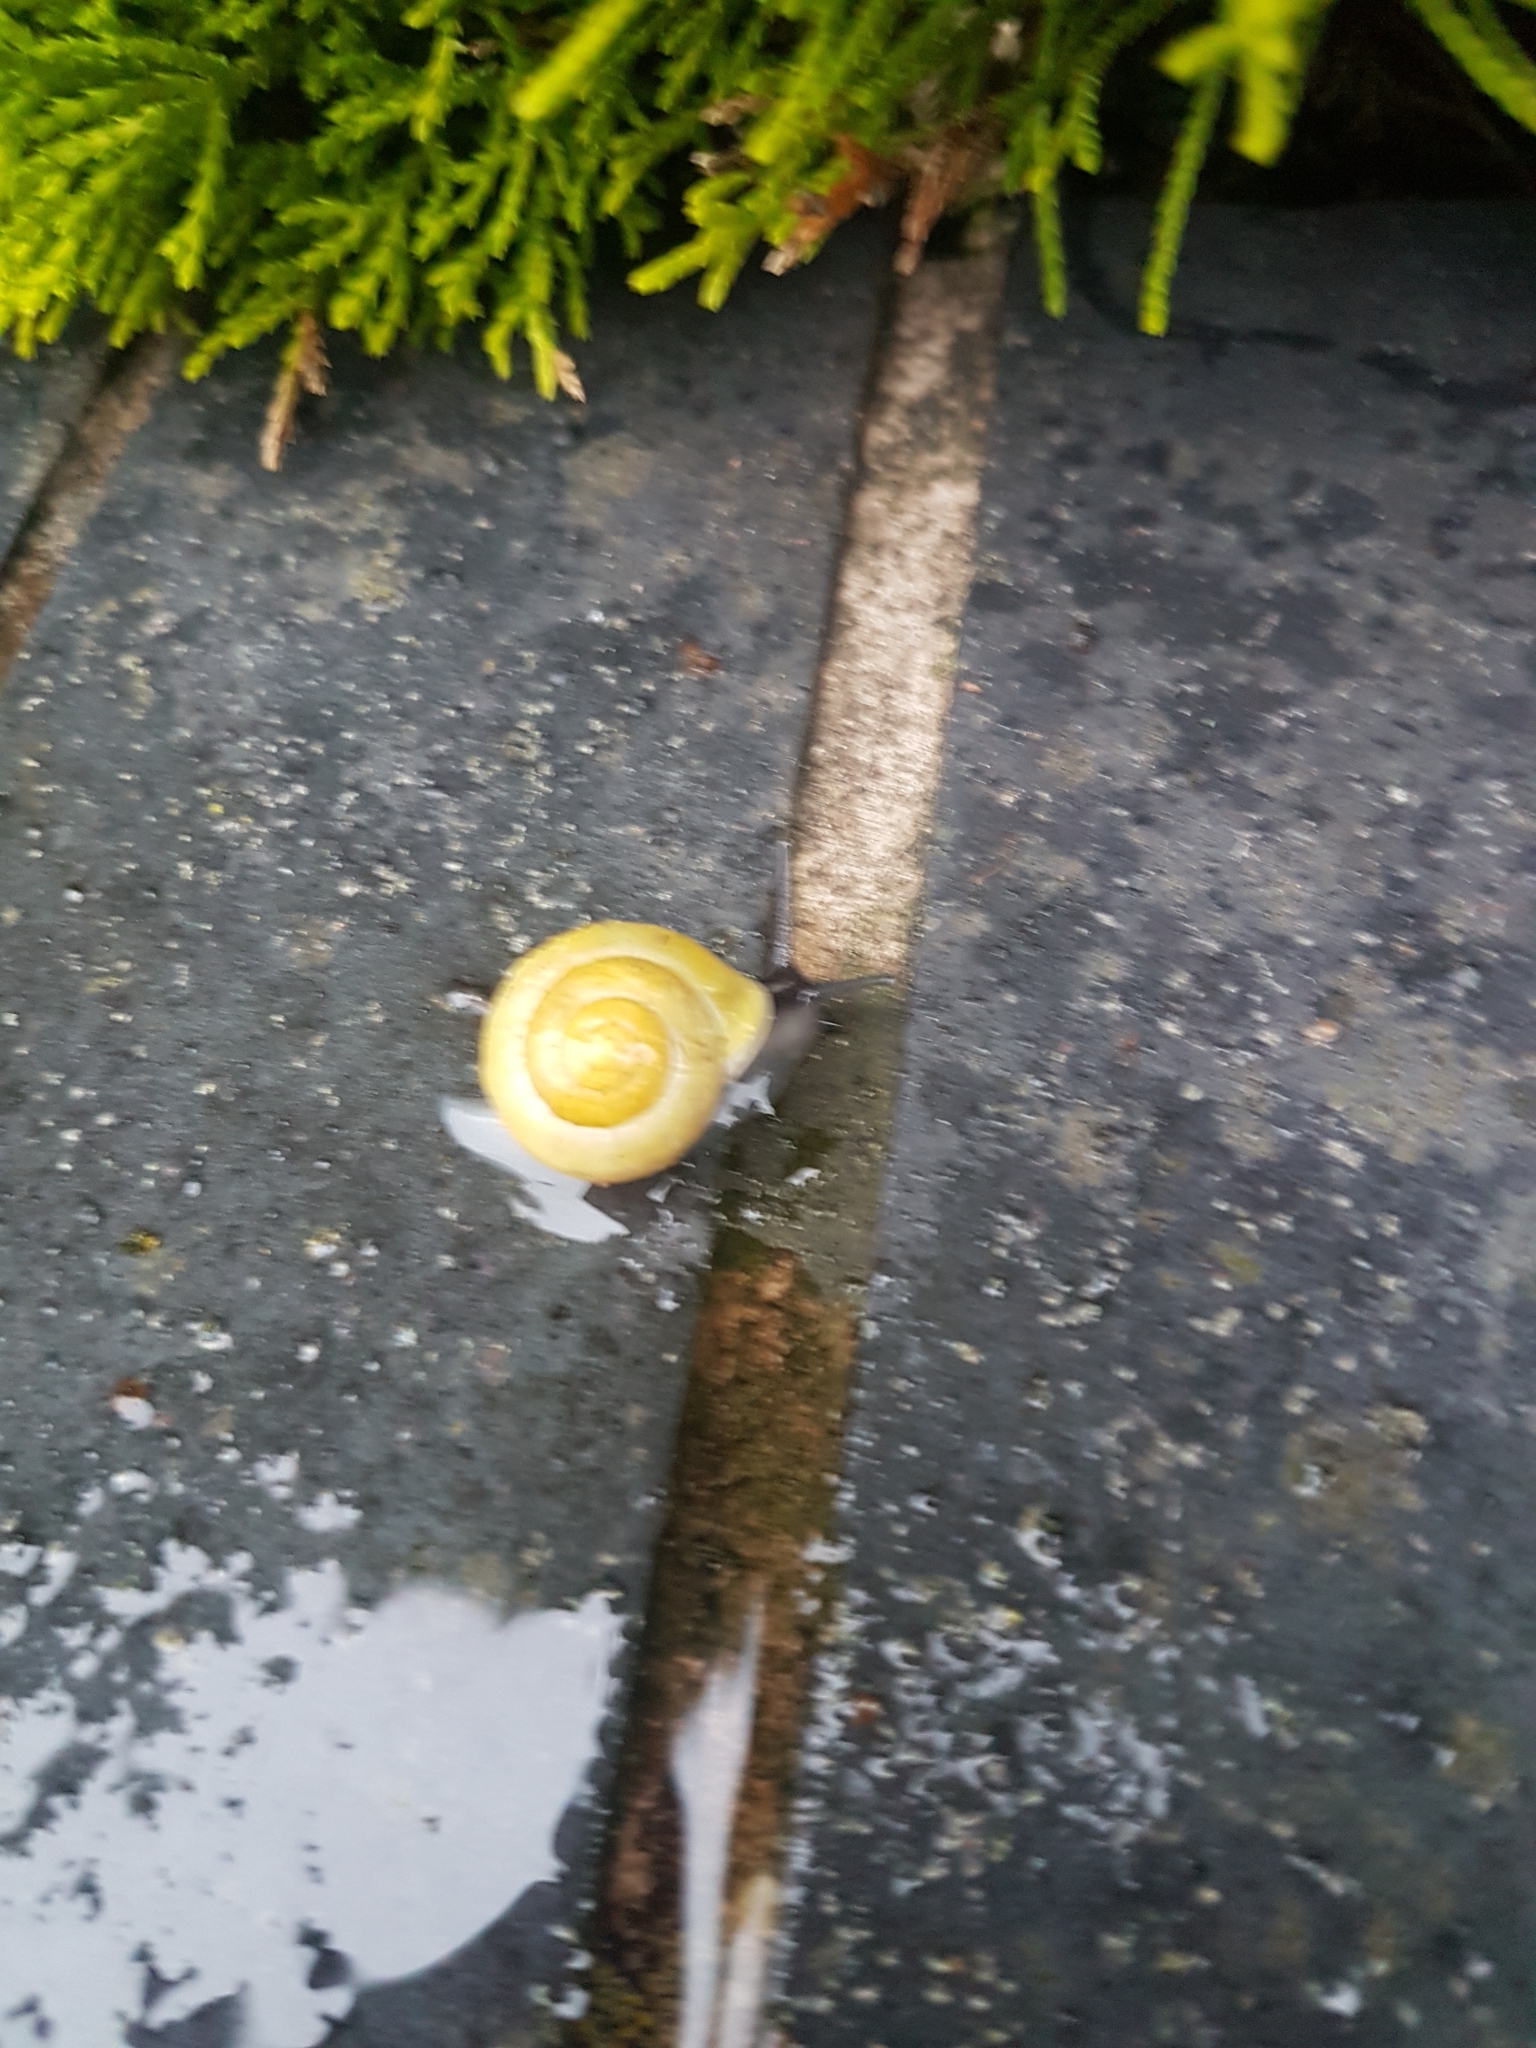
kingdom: Animalia
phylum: Mollusca
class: Gastropoda
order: Stylommatophora
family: Helicidae
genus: Cepaea
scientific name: Cepaea hortensis
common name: White-lip gardensnail
